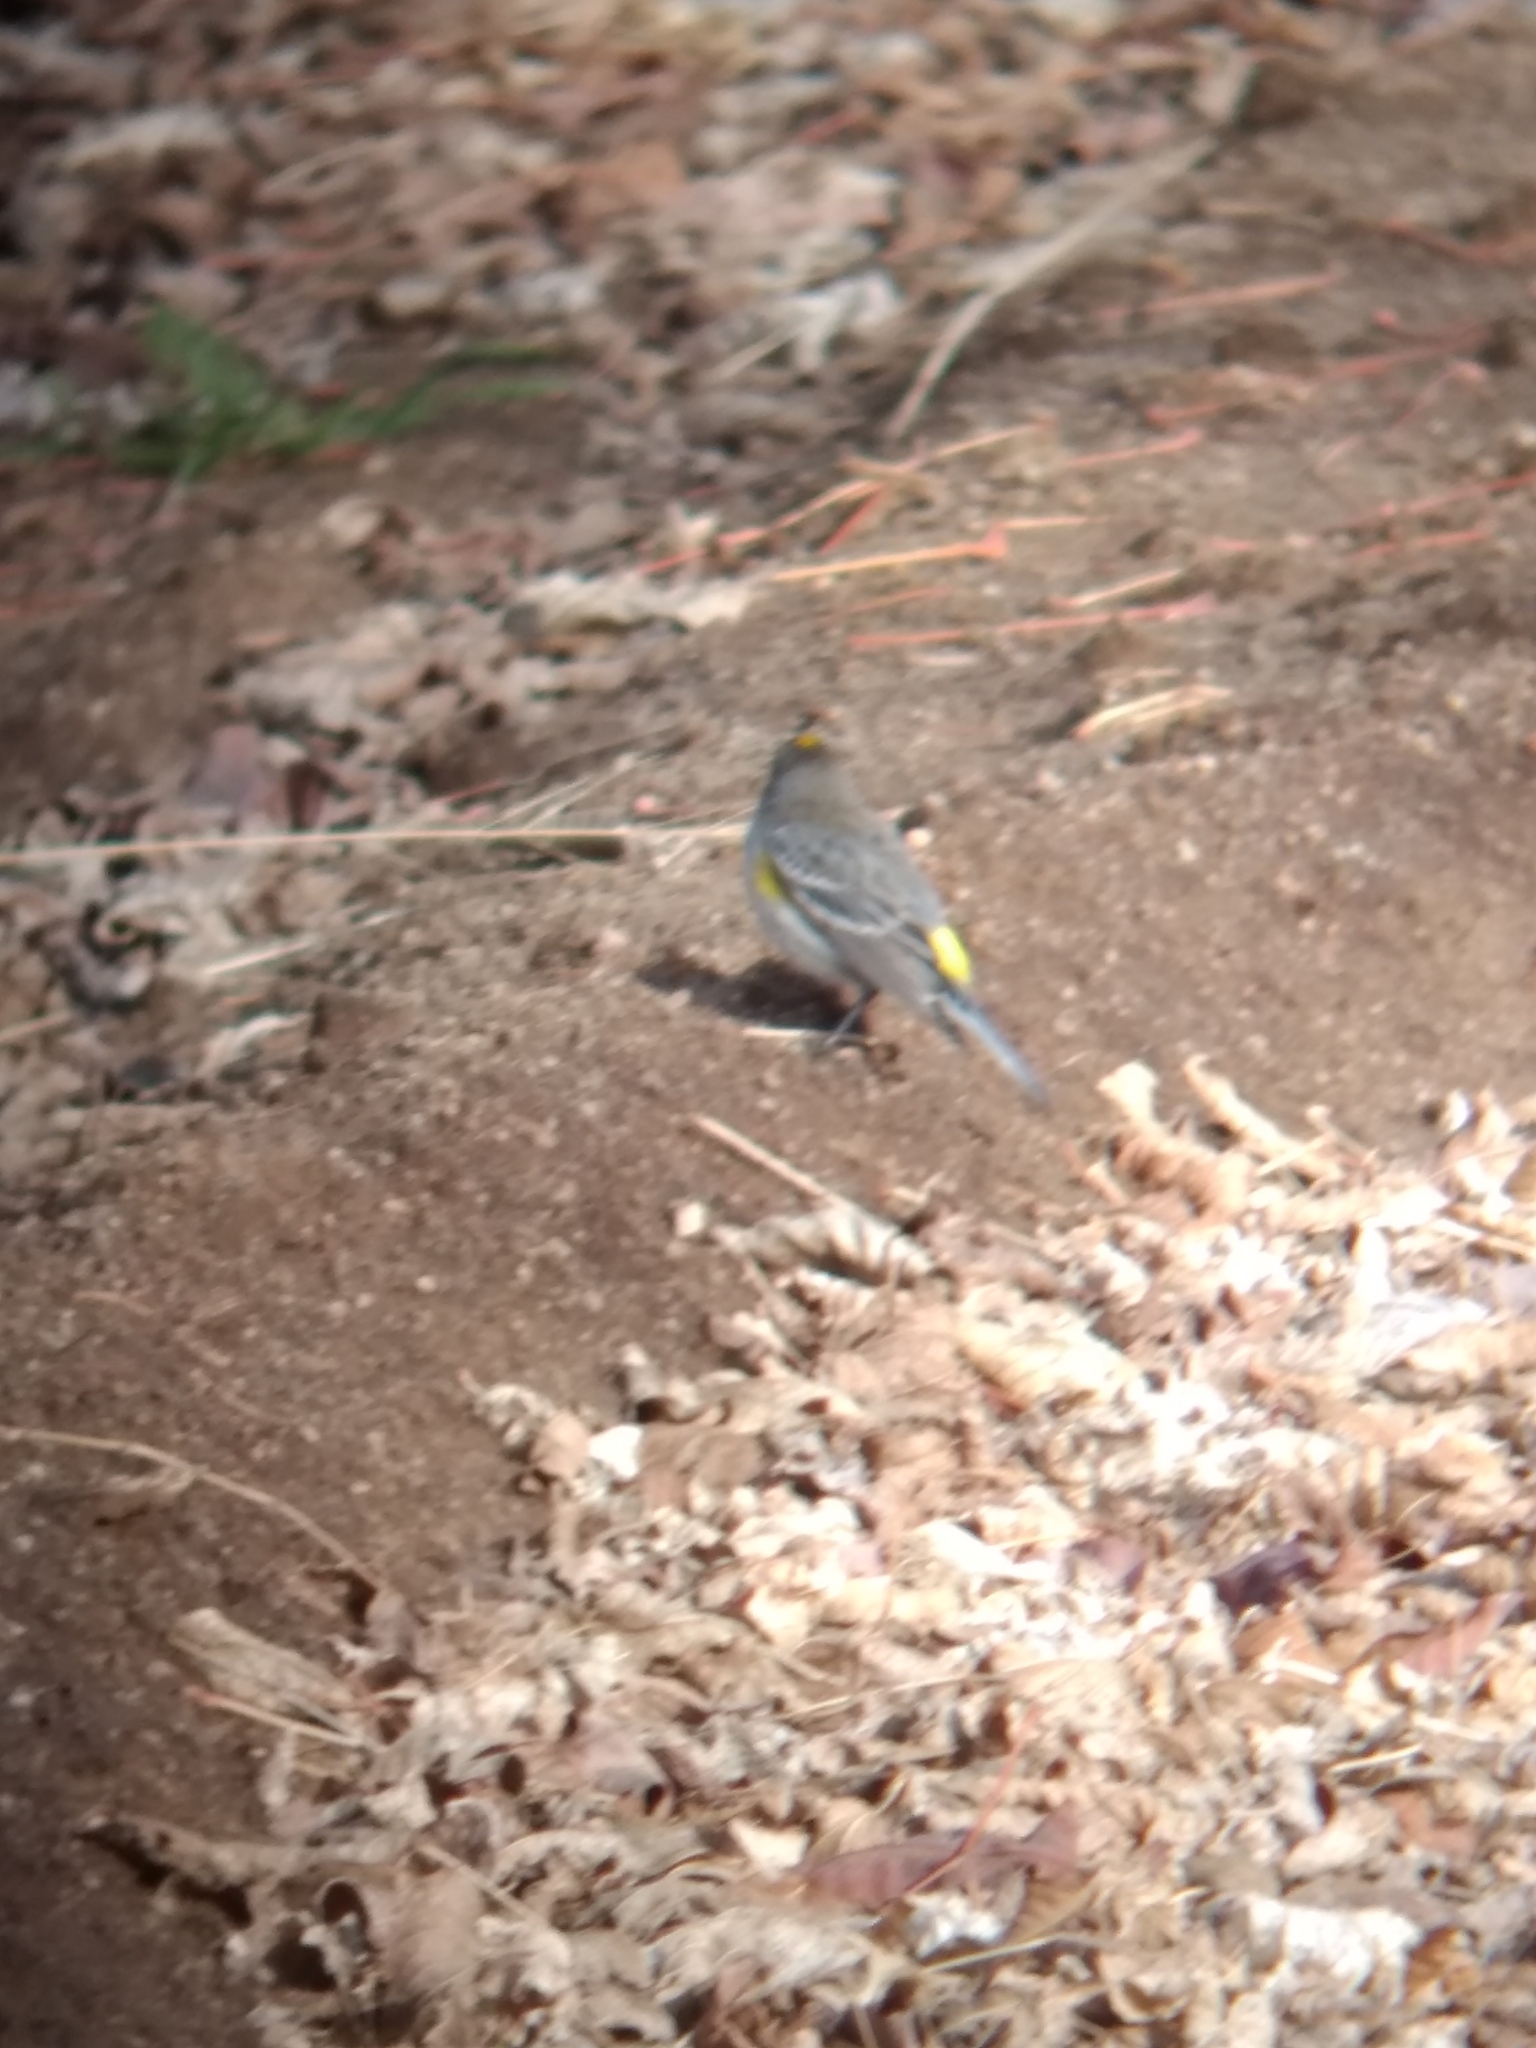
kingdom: Animalia
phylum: Chordata
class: Aves
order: Passeriformes
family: Parulidae
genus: Setophaga
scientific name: Setophaga coronata
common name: Myrtle warbler
